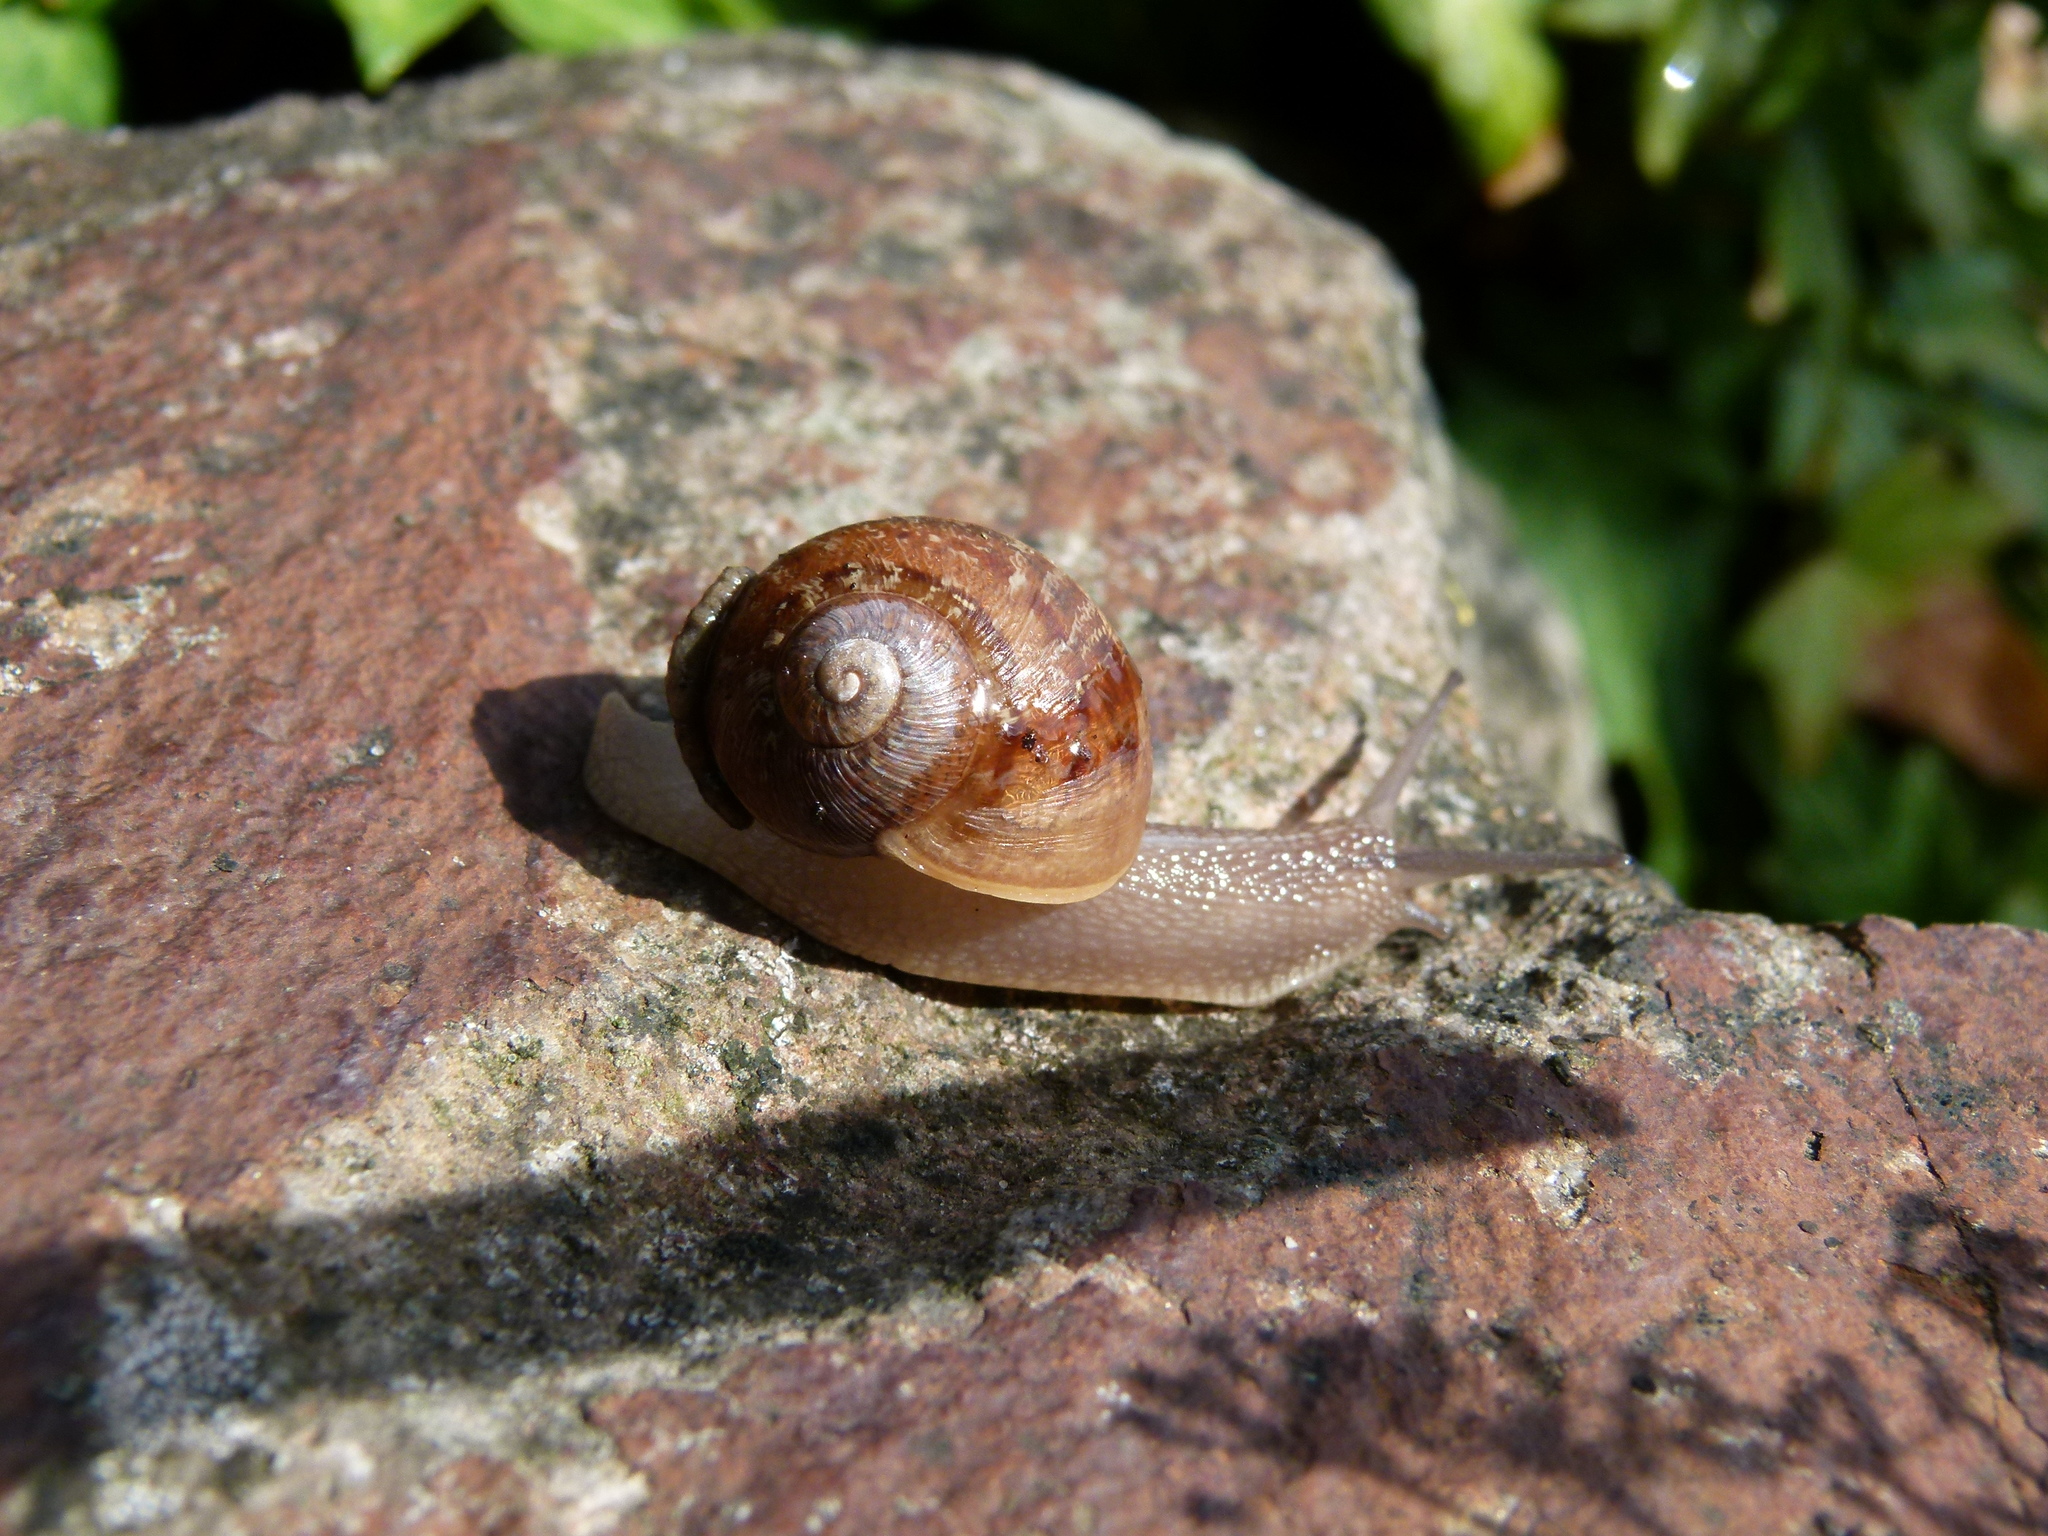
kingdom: Animalia
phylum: Mollusca
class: Gastropoda
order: Stylommatophora
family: Helicidae
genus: Cornu
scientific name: Cornu aspersum
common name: Brown garden snail
